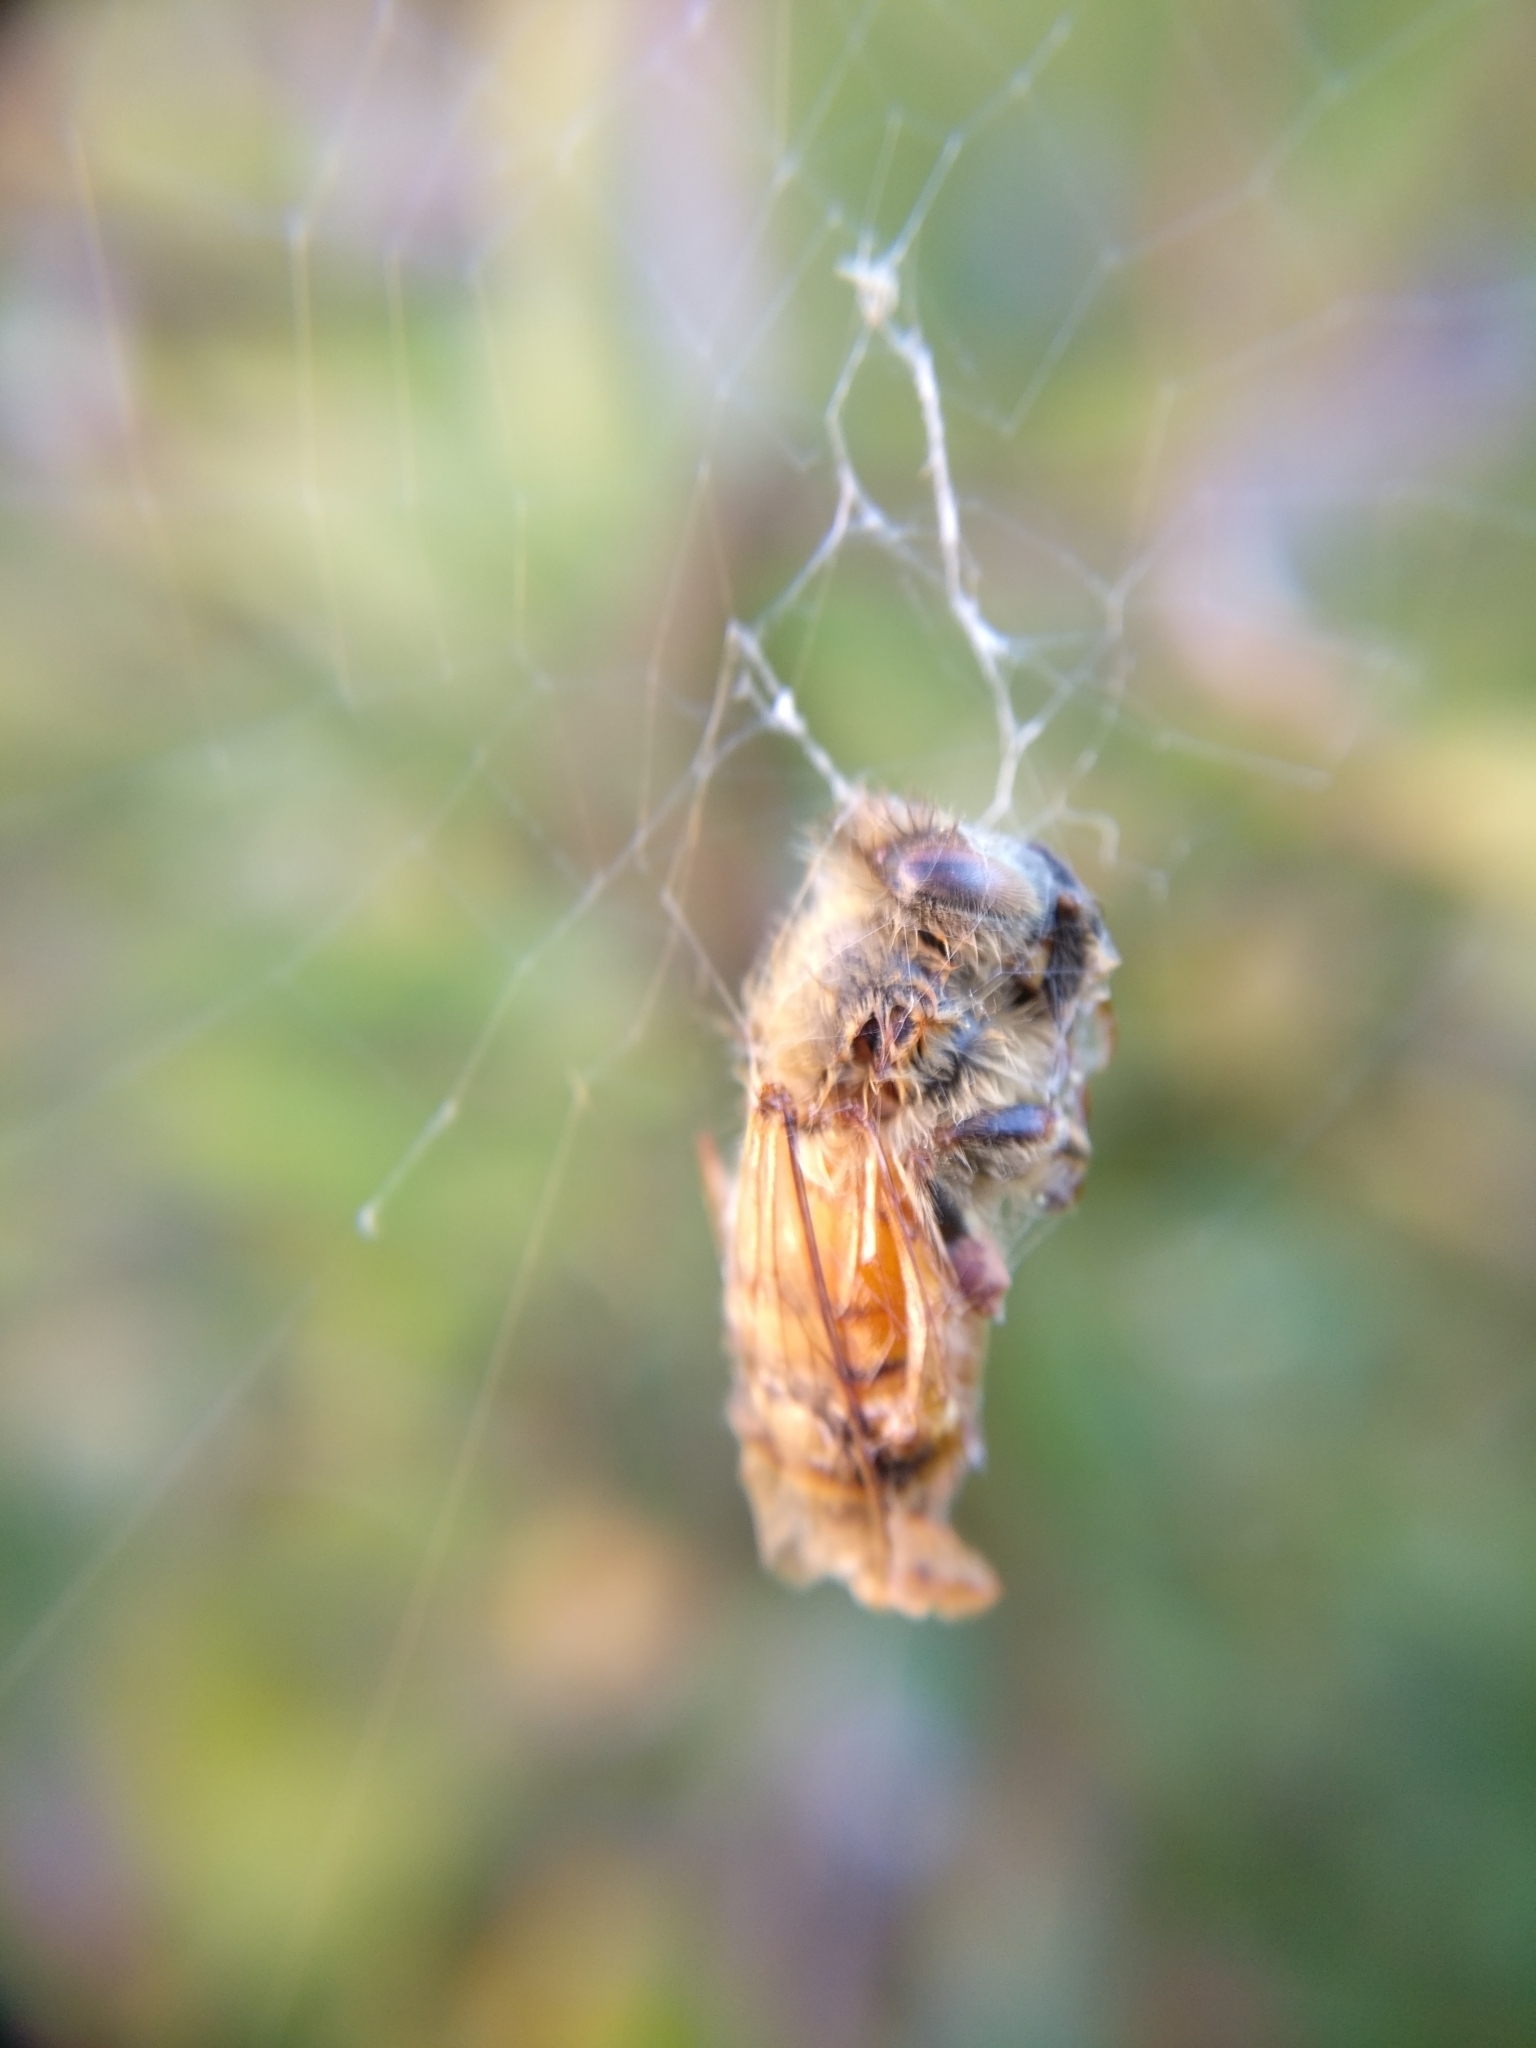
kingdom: Animalia
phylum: Arthropoda
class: Insecta
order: Hymenoptera
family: Apidae
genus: Apis
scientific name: Apis mellifera
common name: Honey bee
